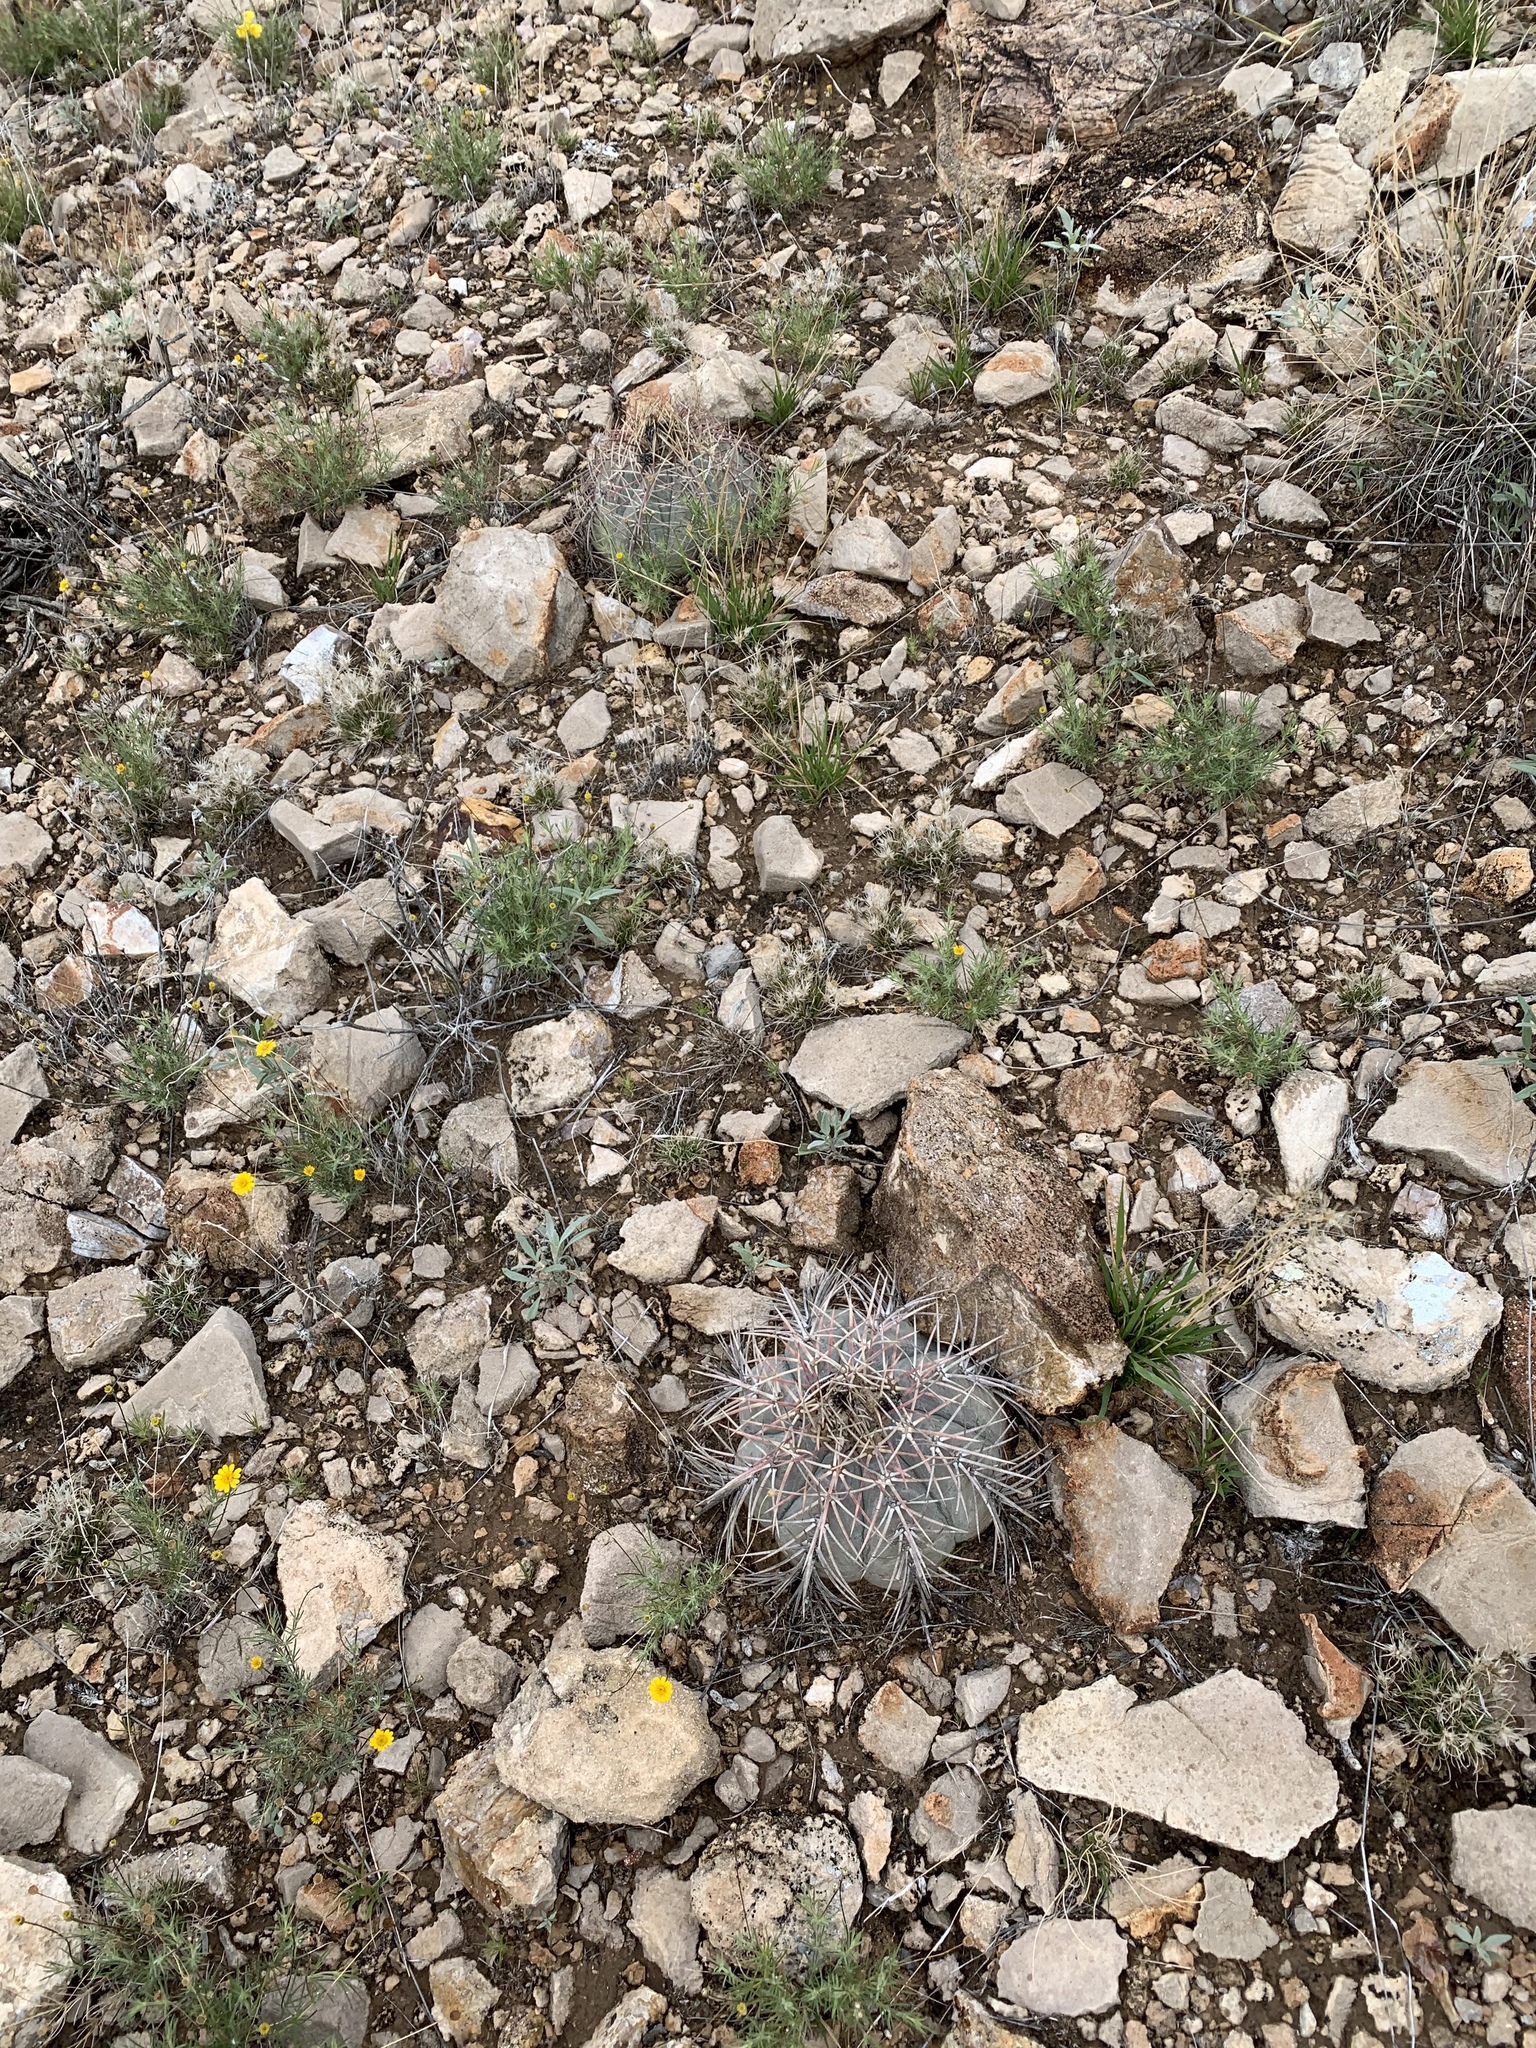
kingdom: Plantae
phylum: Tracheophyta
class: Magnoliopsida
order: Caryophyllales
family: Cactaceae
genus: Echinocactus
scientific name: Echinocactus horizonthalonius
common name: Devilshead
